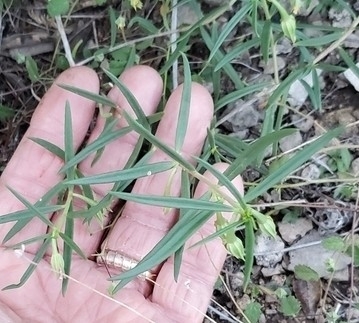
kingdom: Plantae
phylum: Tracheophyta
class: Magnoliopsida
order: Caryophyllales
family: Montiaceae
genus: Phemeranthus
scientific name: Phemeranthus aurantiacus
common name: Orange fameflower
